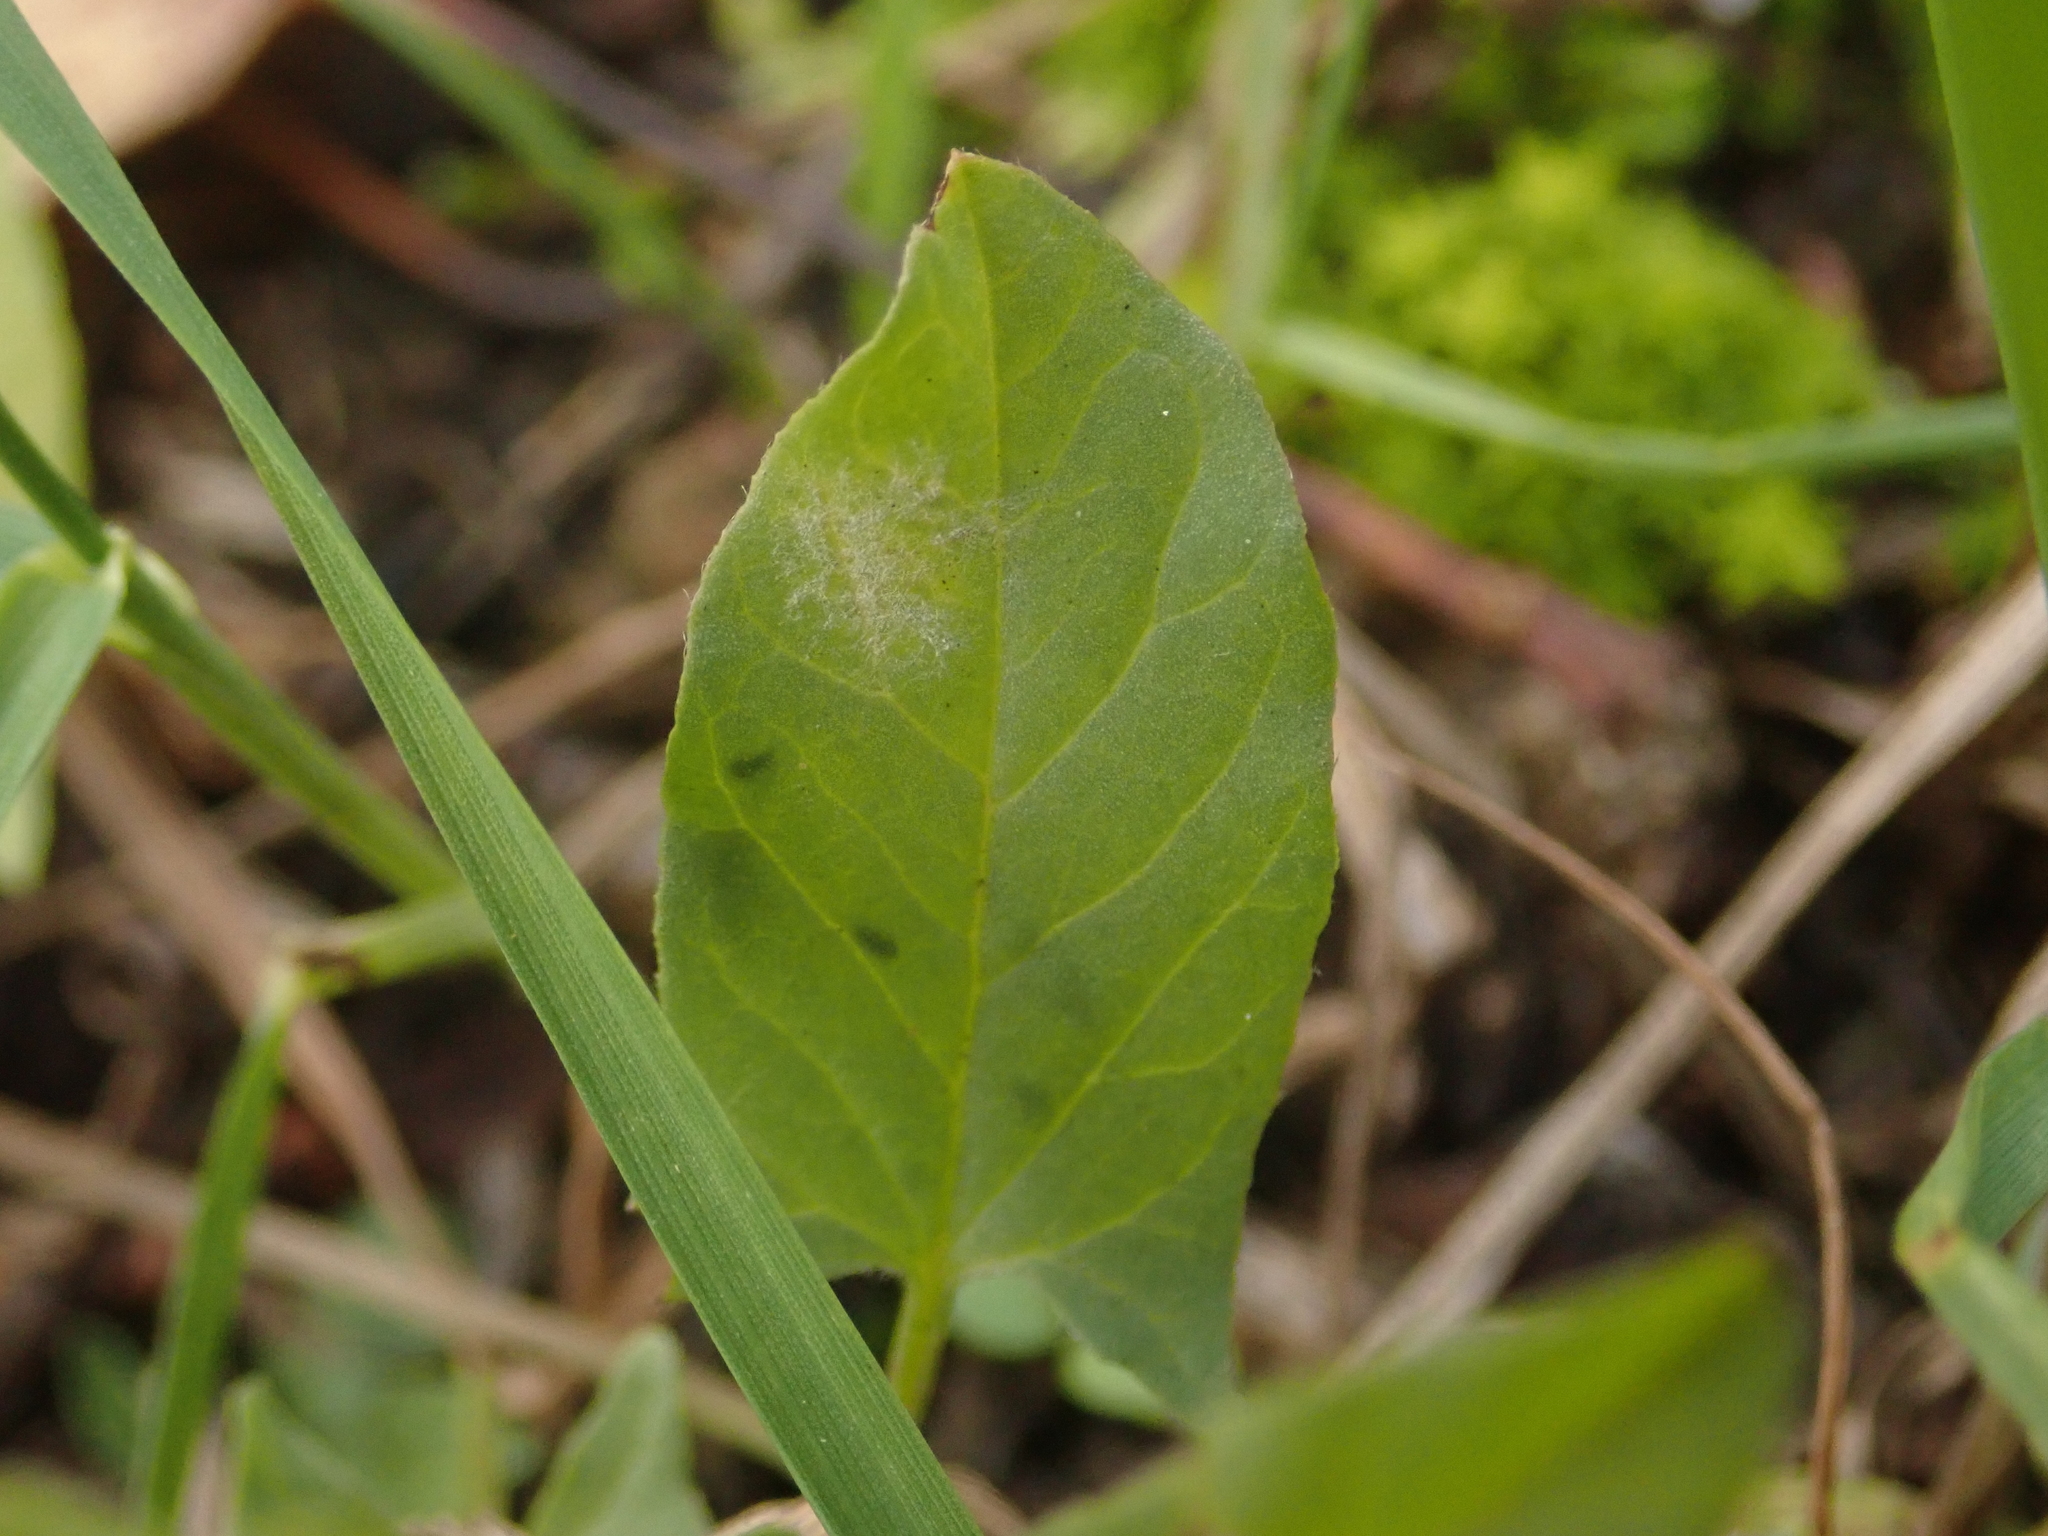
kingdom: Fungi
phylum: Ascomycota
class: Leotiomycetes
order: Helotiales
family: Erysiphaceae
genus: Erysiphe
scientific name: Erysiphe convolvuli
